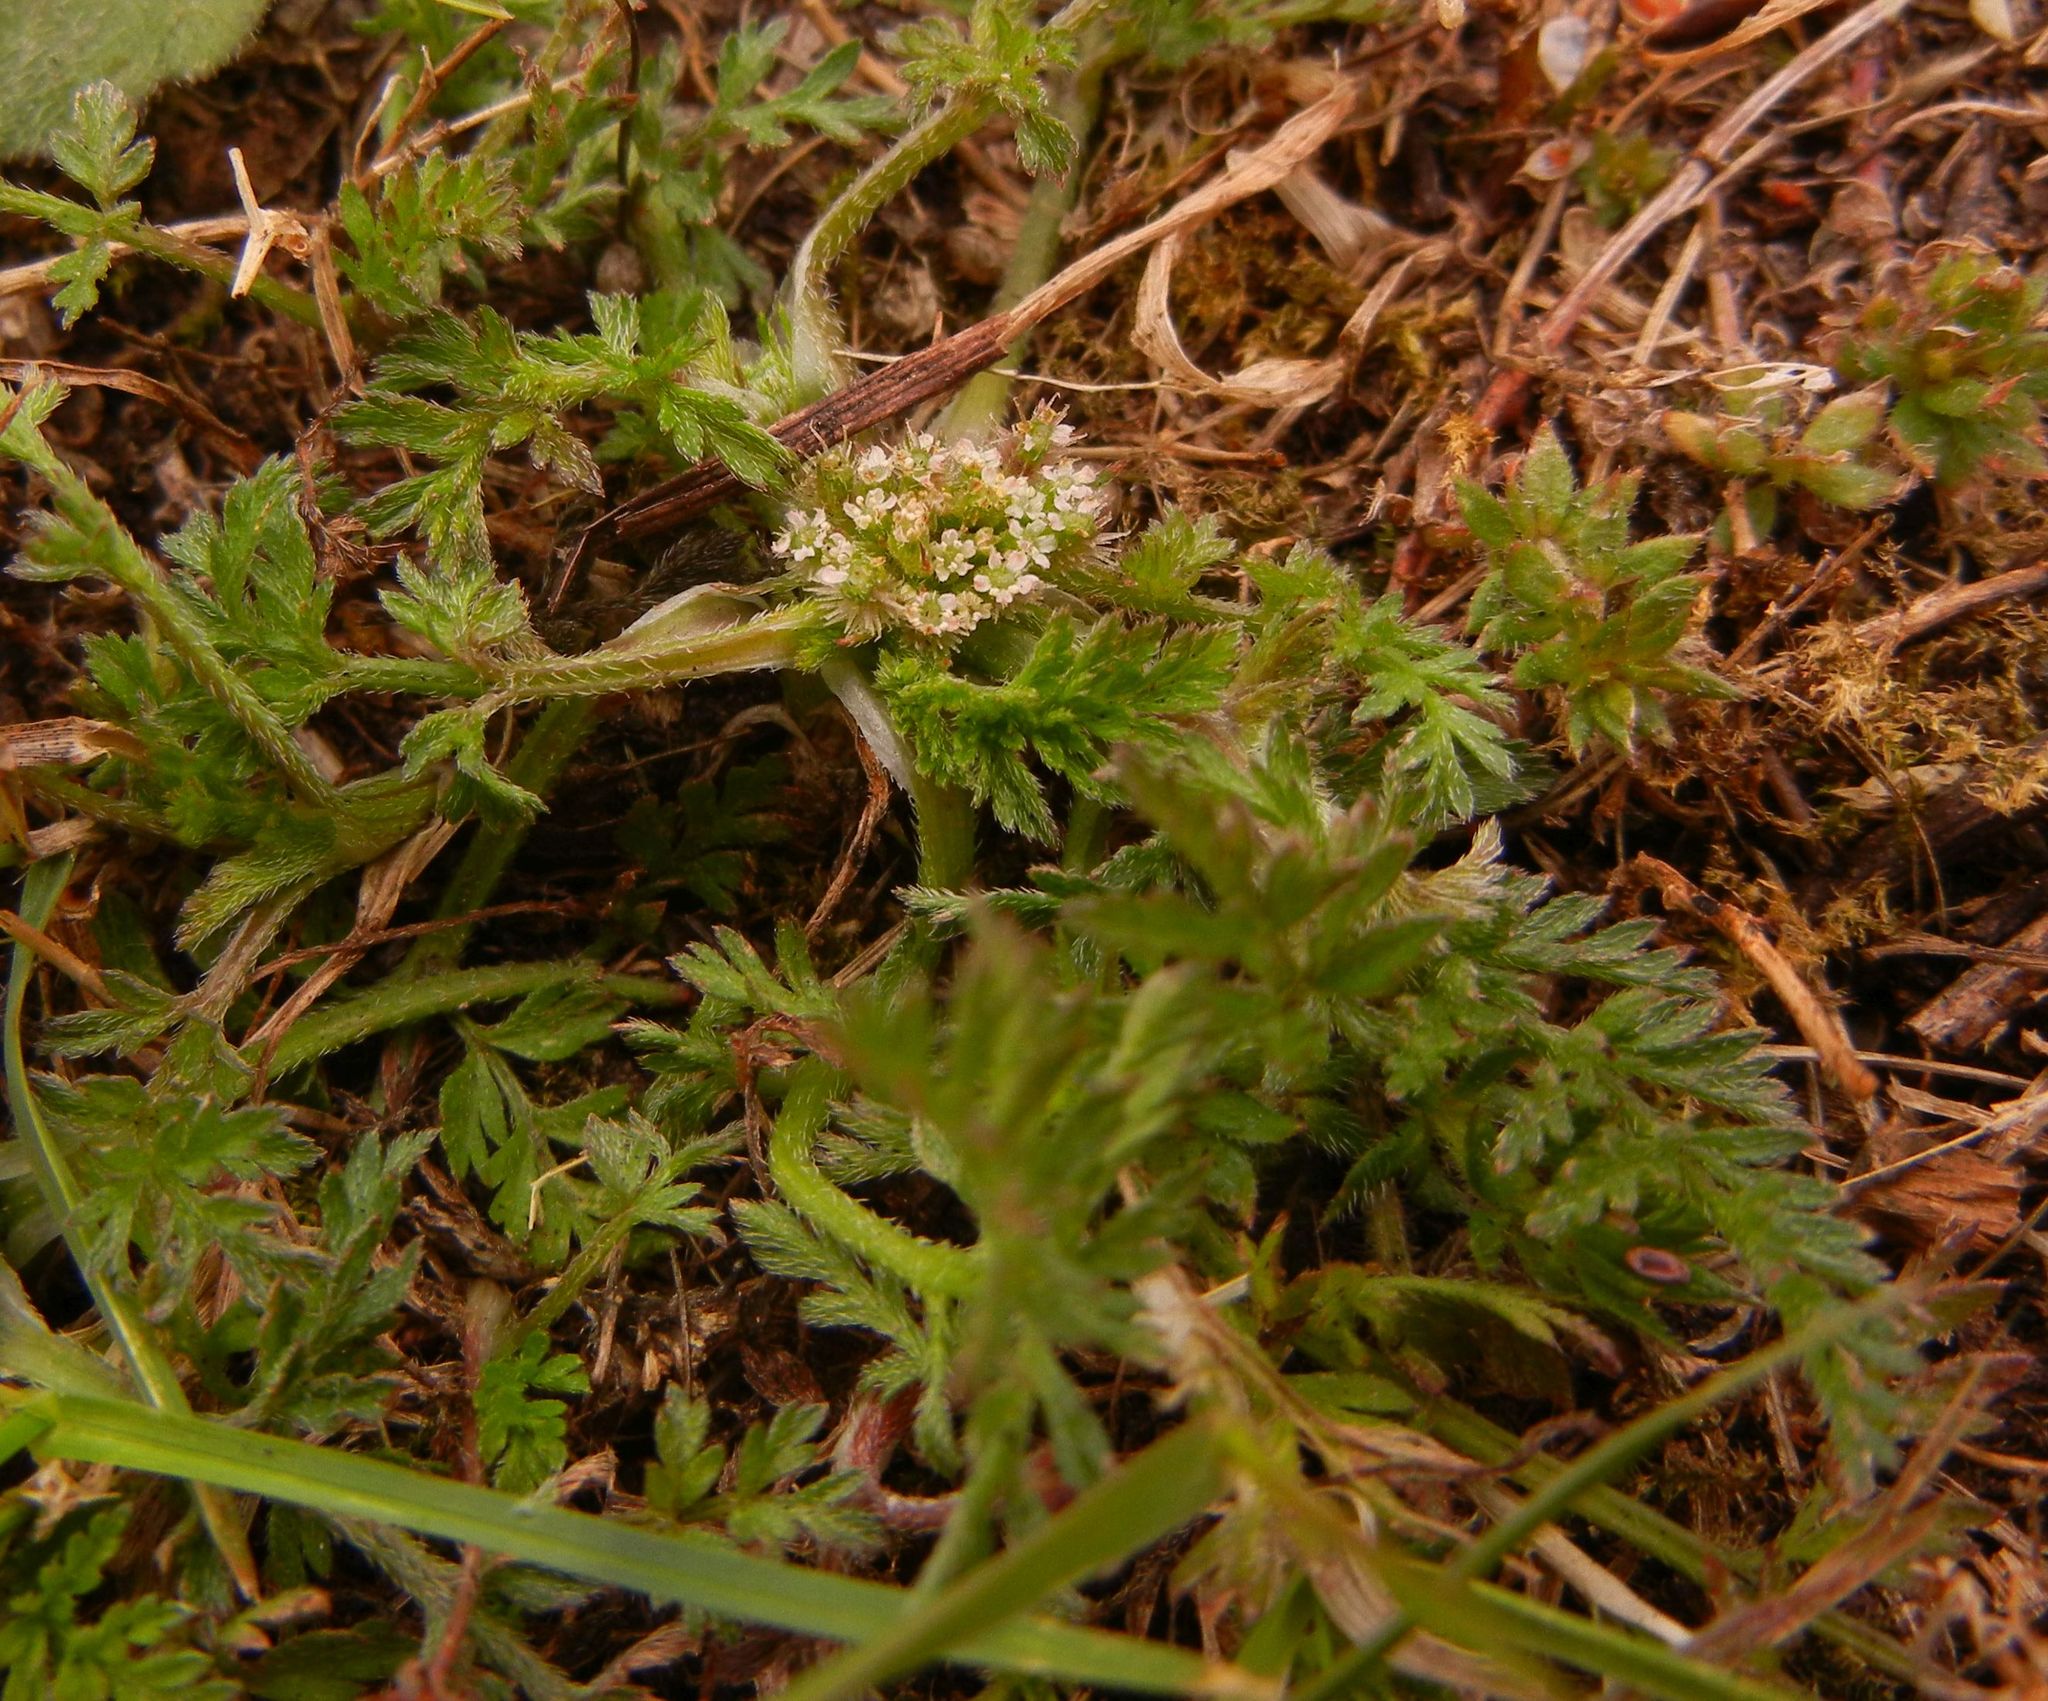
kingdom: Plantae
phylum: Tracheophyta
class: Magnoliopsida
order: Apiales
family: Apiaceae
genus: Torilis
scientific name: Torilis nodosa
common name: Knotted hedge-parsley
